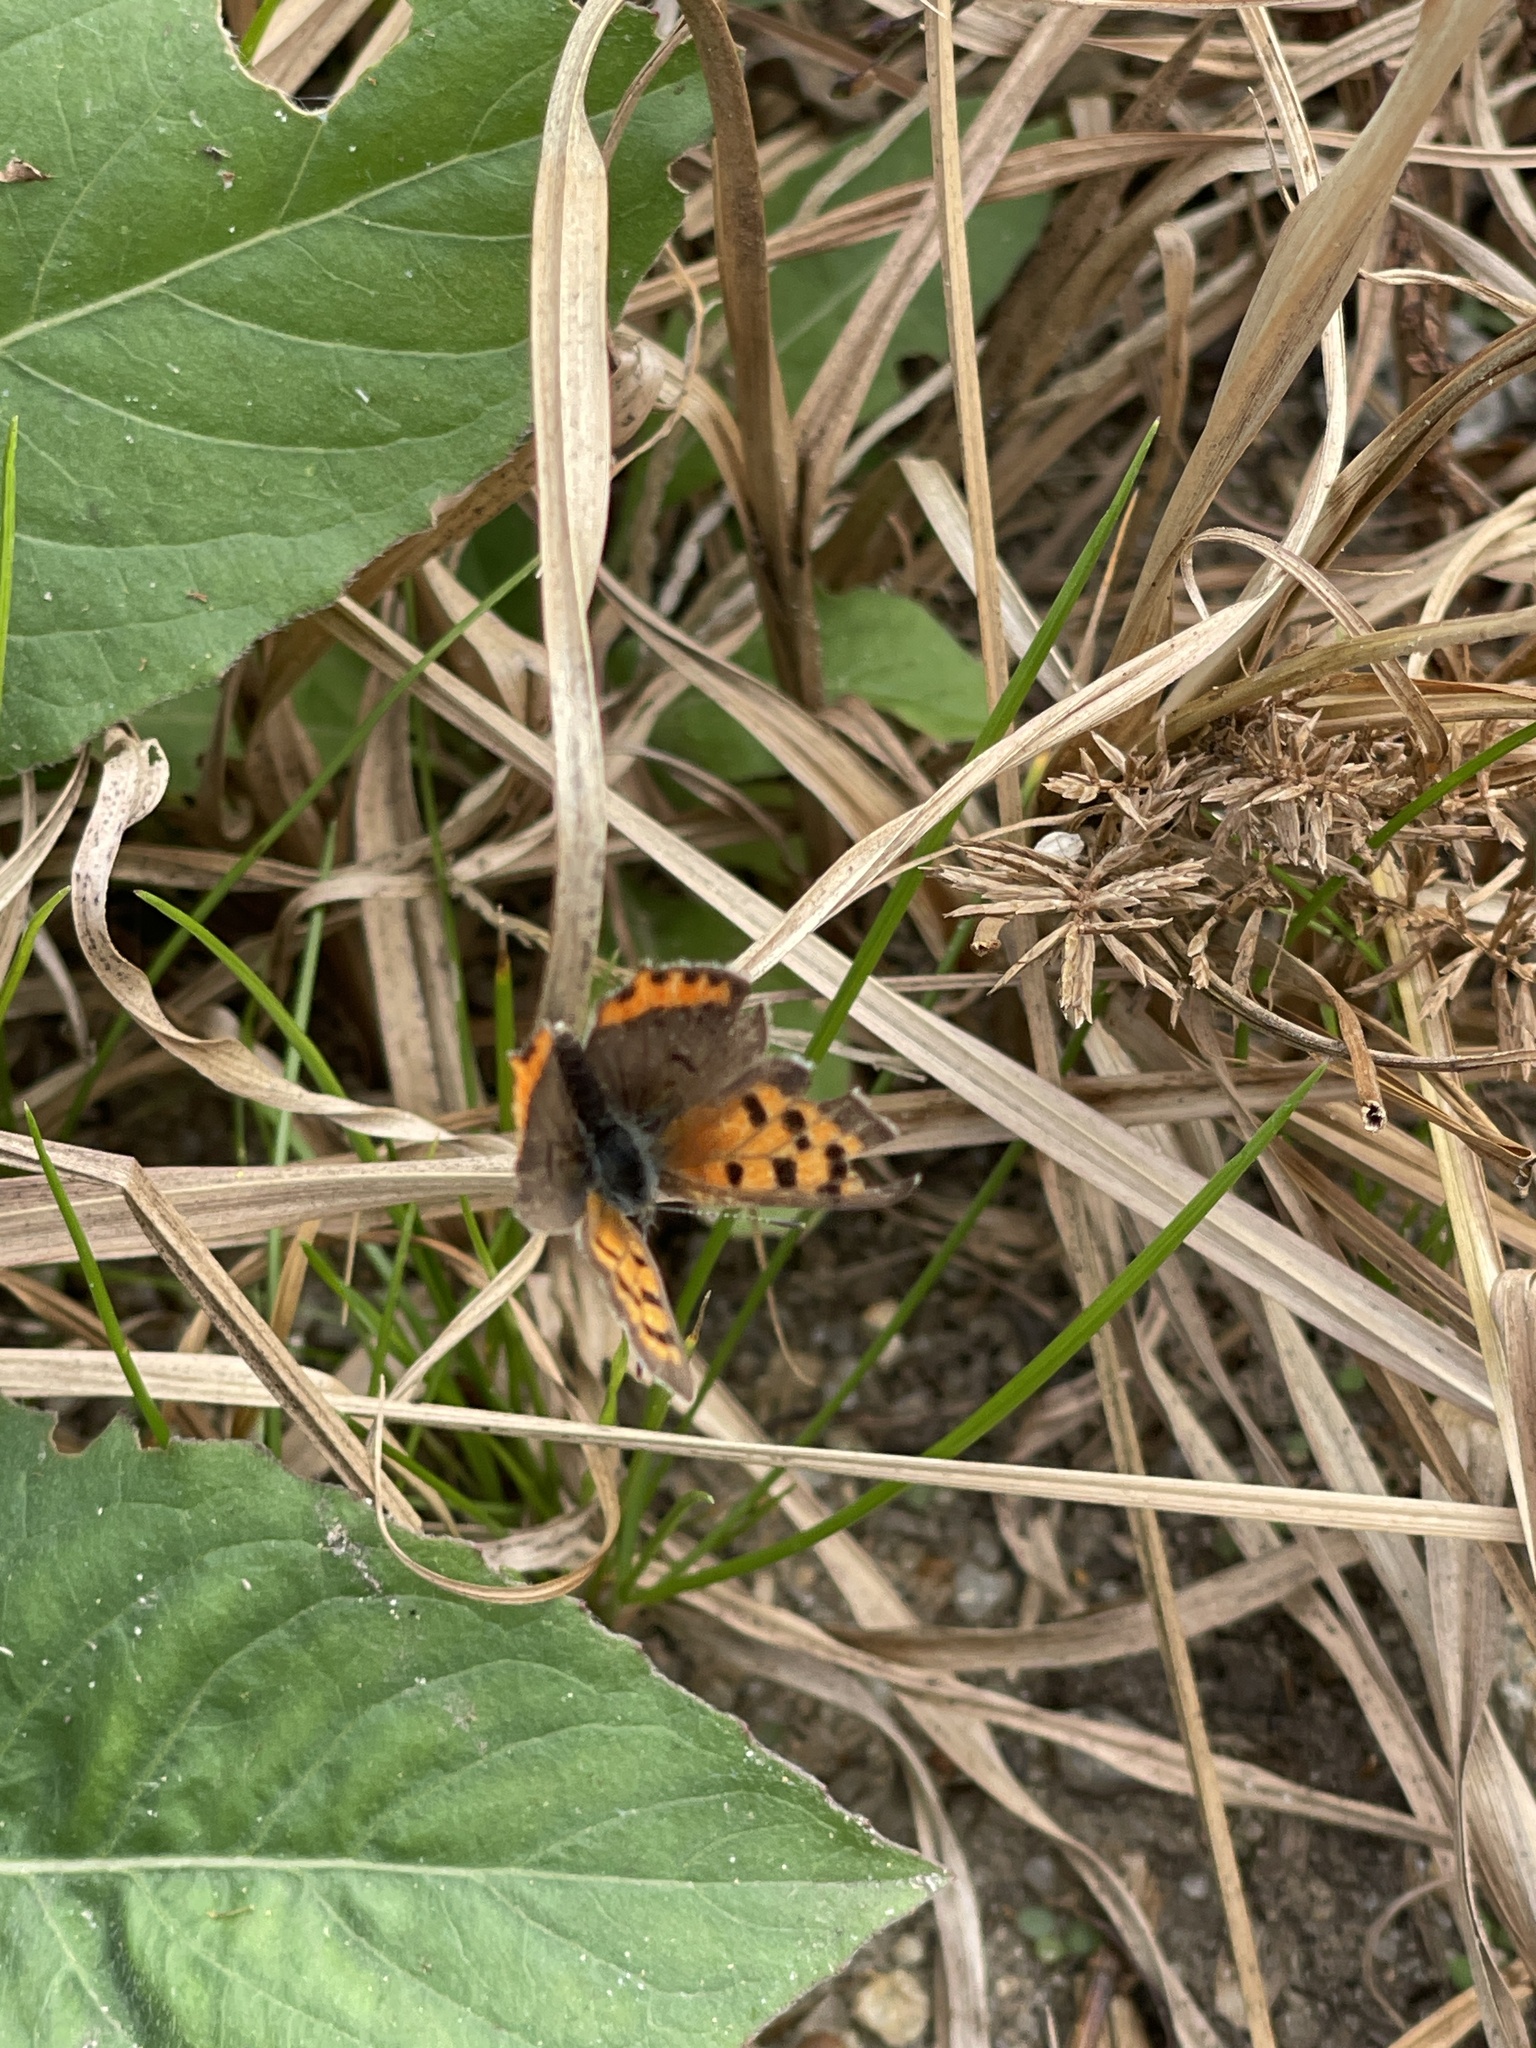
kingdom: Animalia
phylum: Arthropoda
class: Insecta
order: Lepidoptera
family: Lycaenidae
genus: Lycaena
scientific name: Lycaena hypophlaeas
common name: American copper
